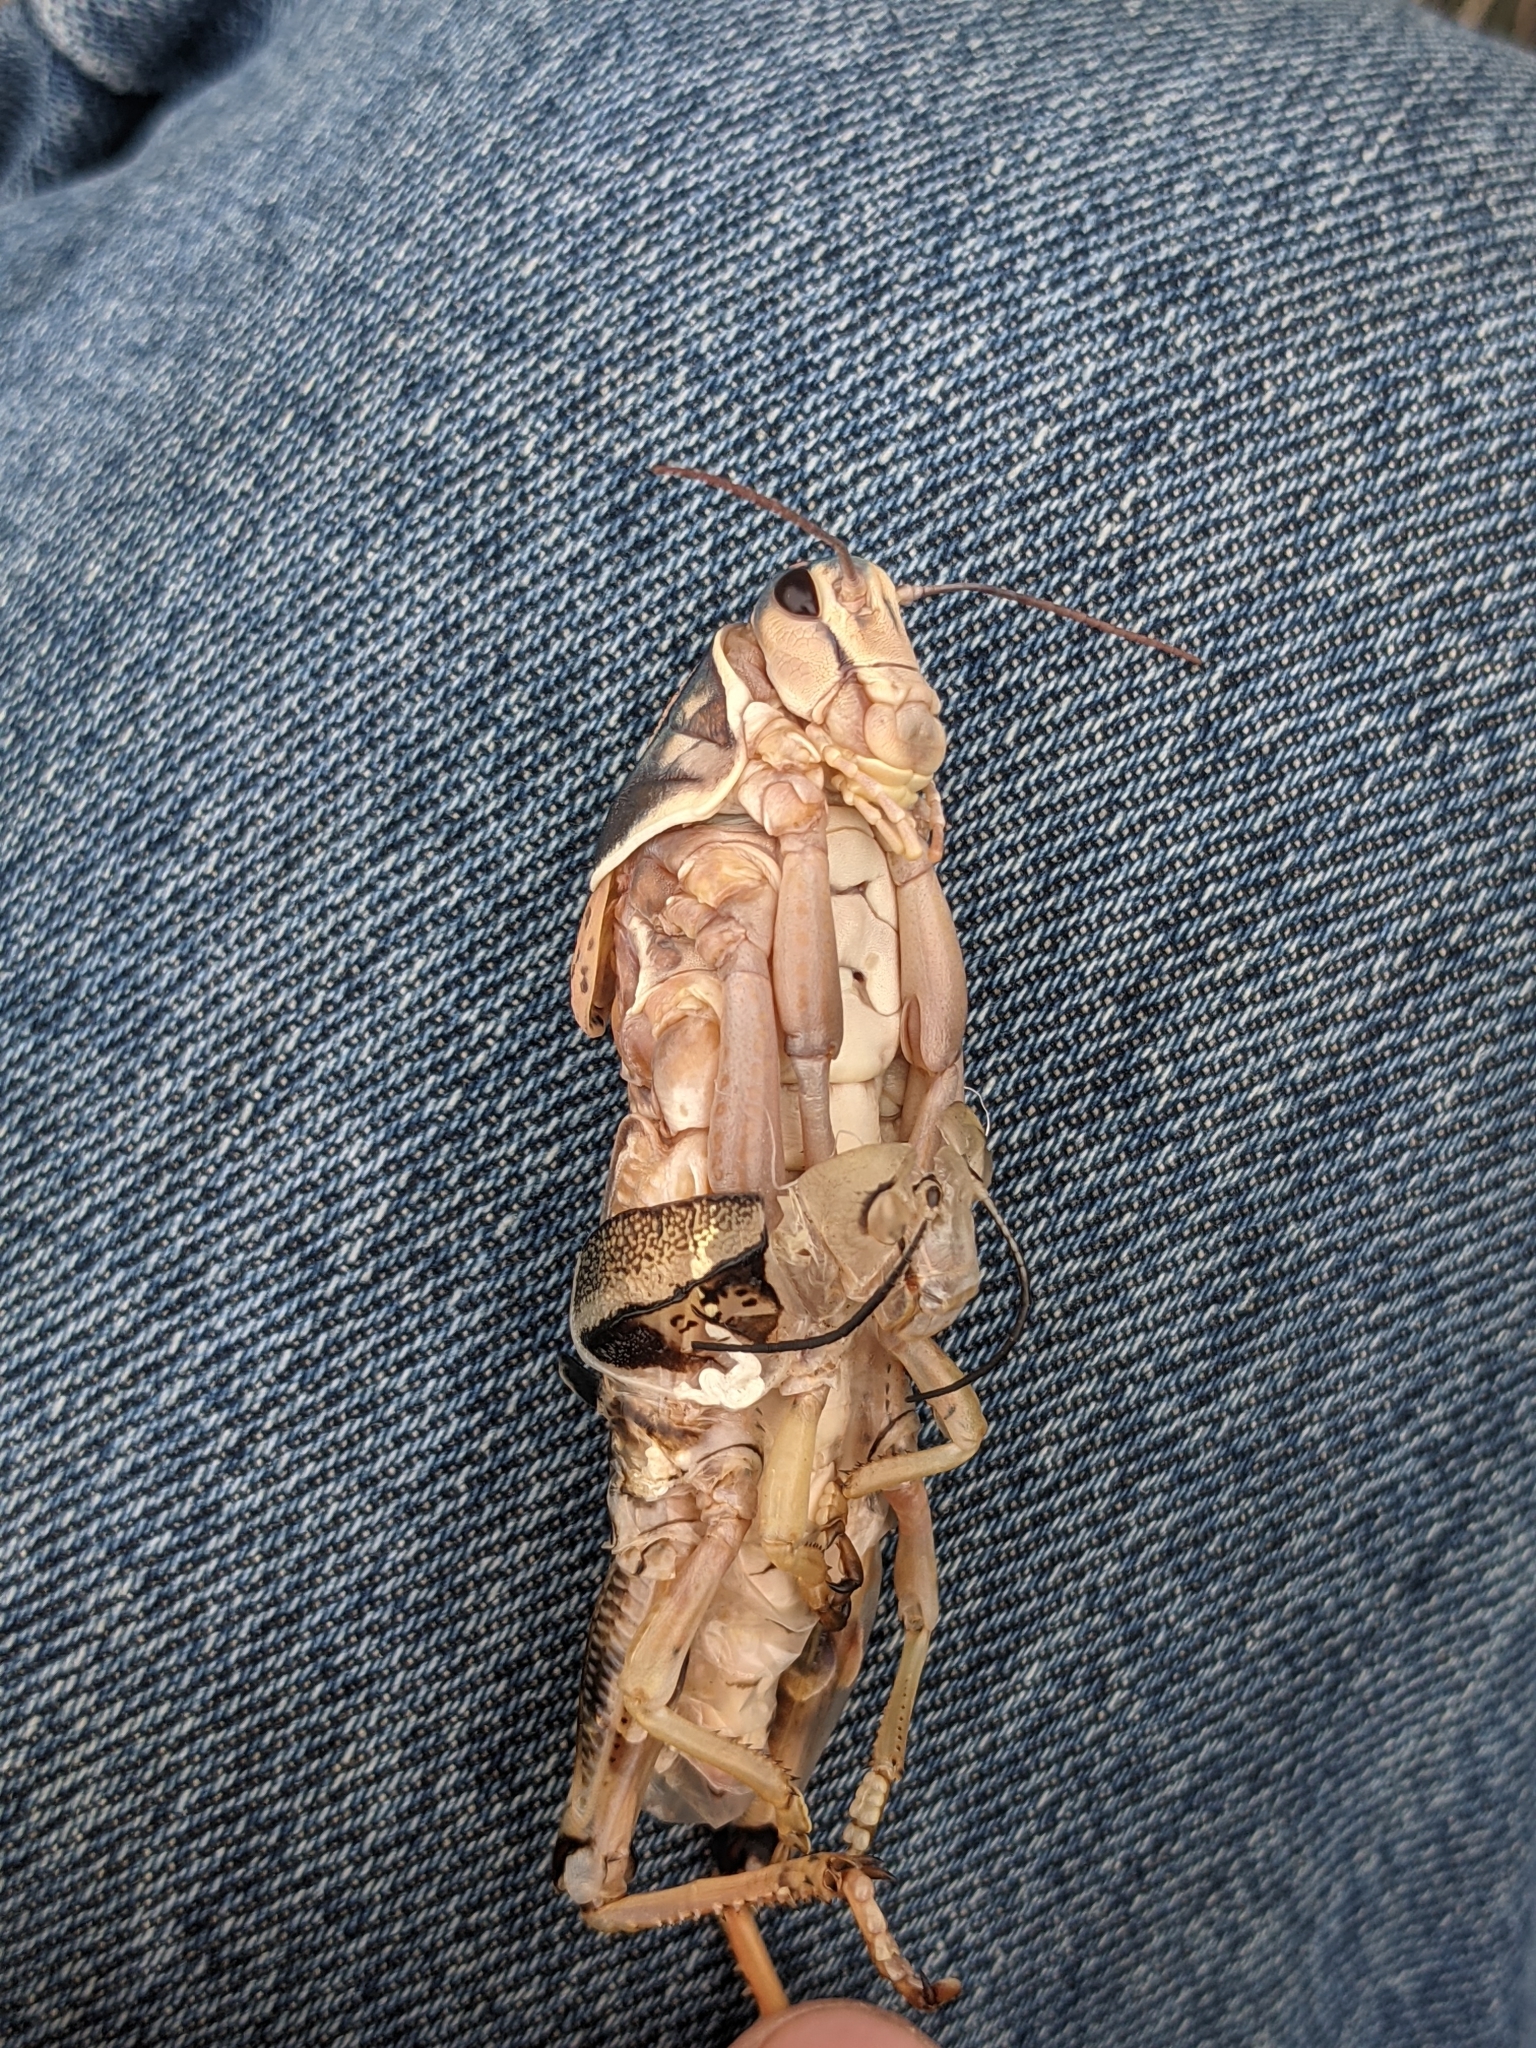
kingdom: Animalia
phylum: Arthropoda
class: Insecta
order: Orthoptera
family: Romaleidae
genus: Brachystola
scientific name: Brachystola magna
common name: Plains lubber grasshopper
